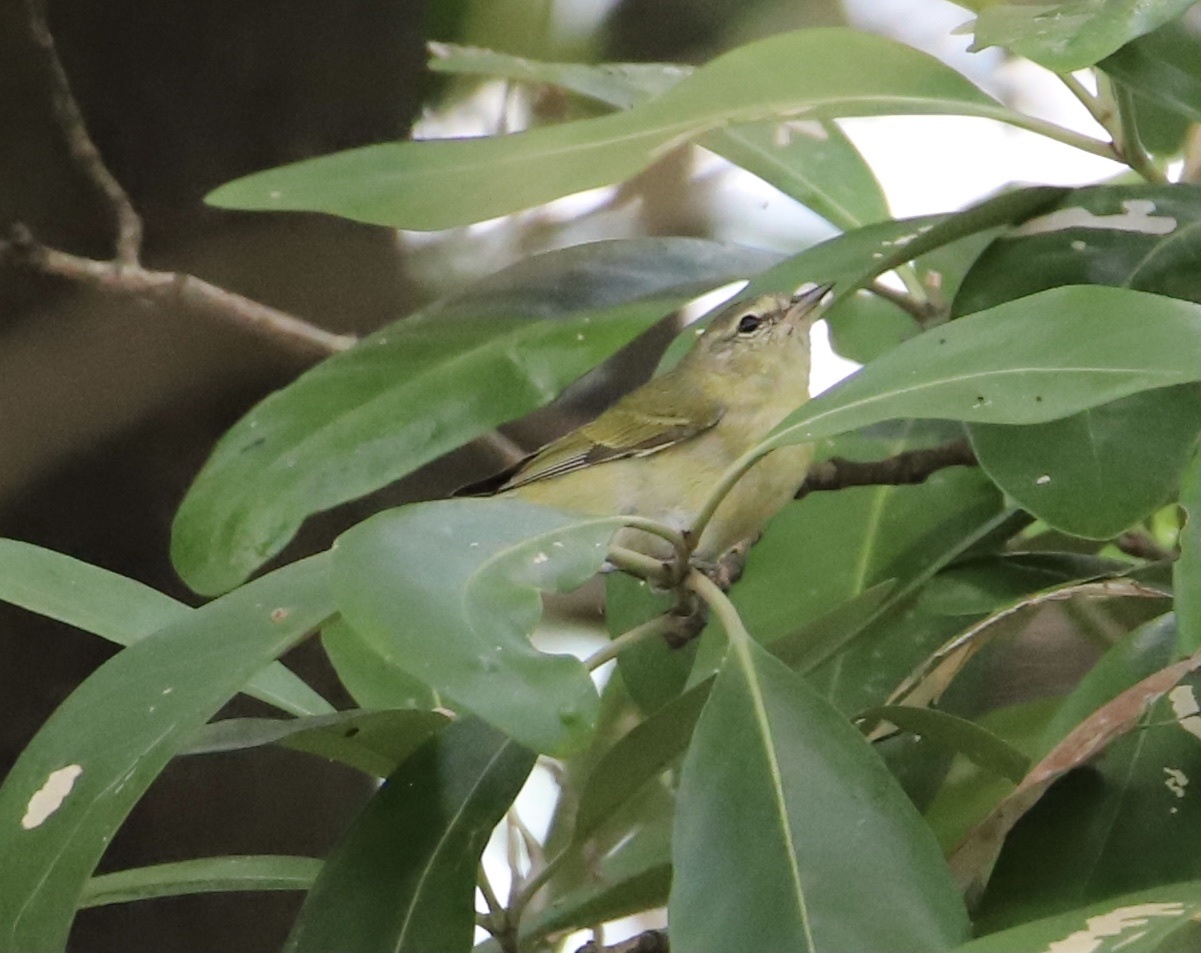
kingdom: Animalia
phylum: Chordata
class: Aves
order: Passeriformes
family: Parulidae
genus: Leiothlypis
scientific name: Leiothlypis peregrina
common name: Tennessee warbler
